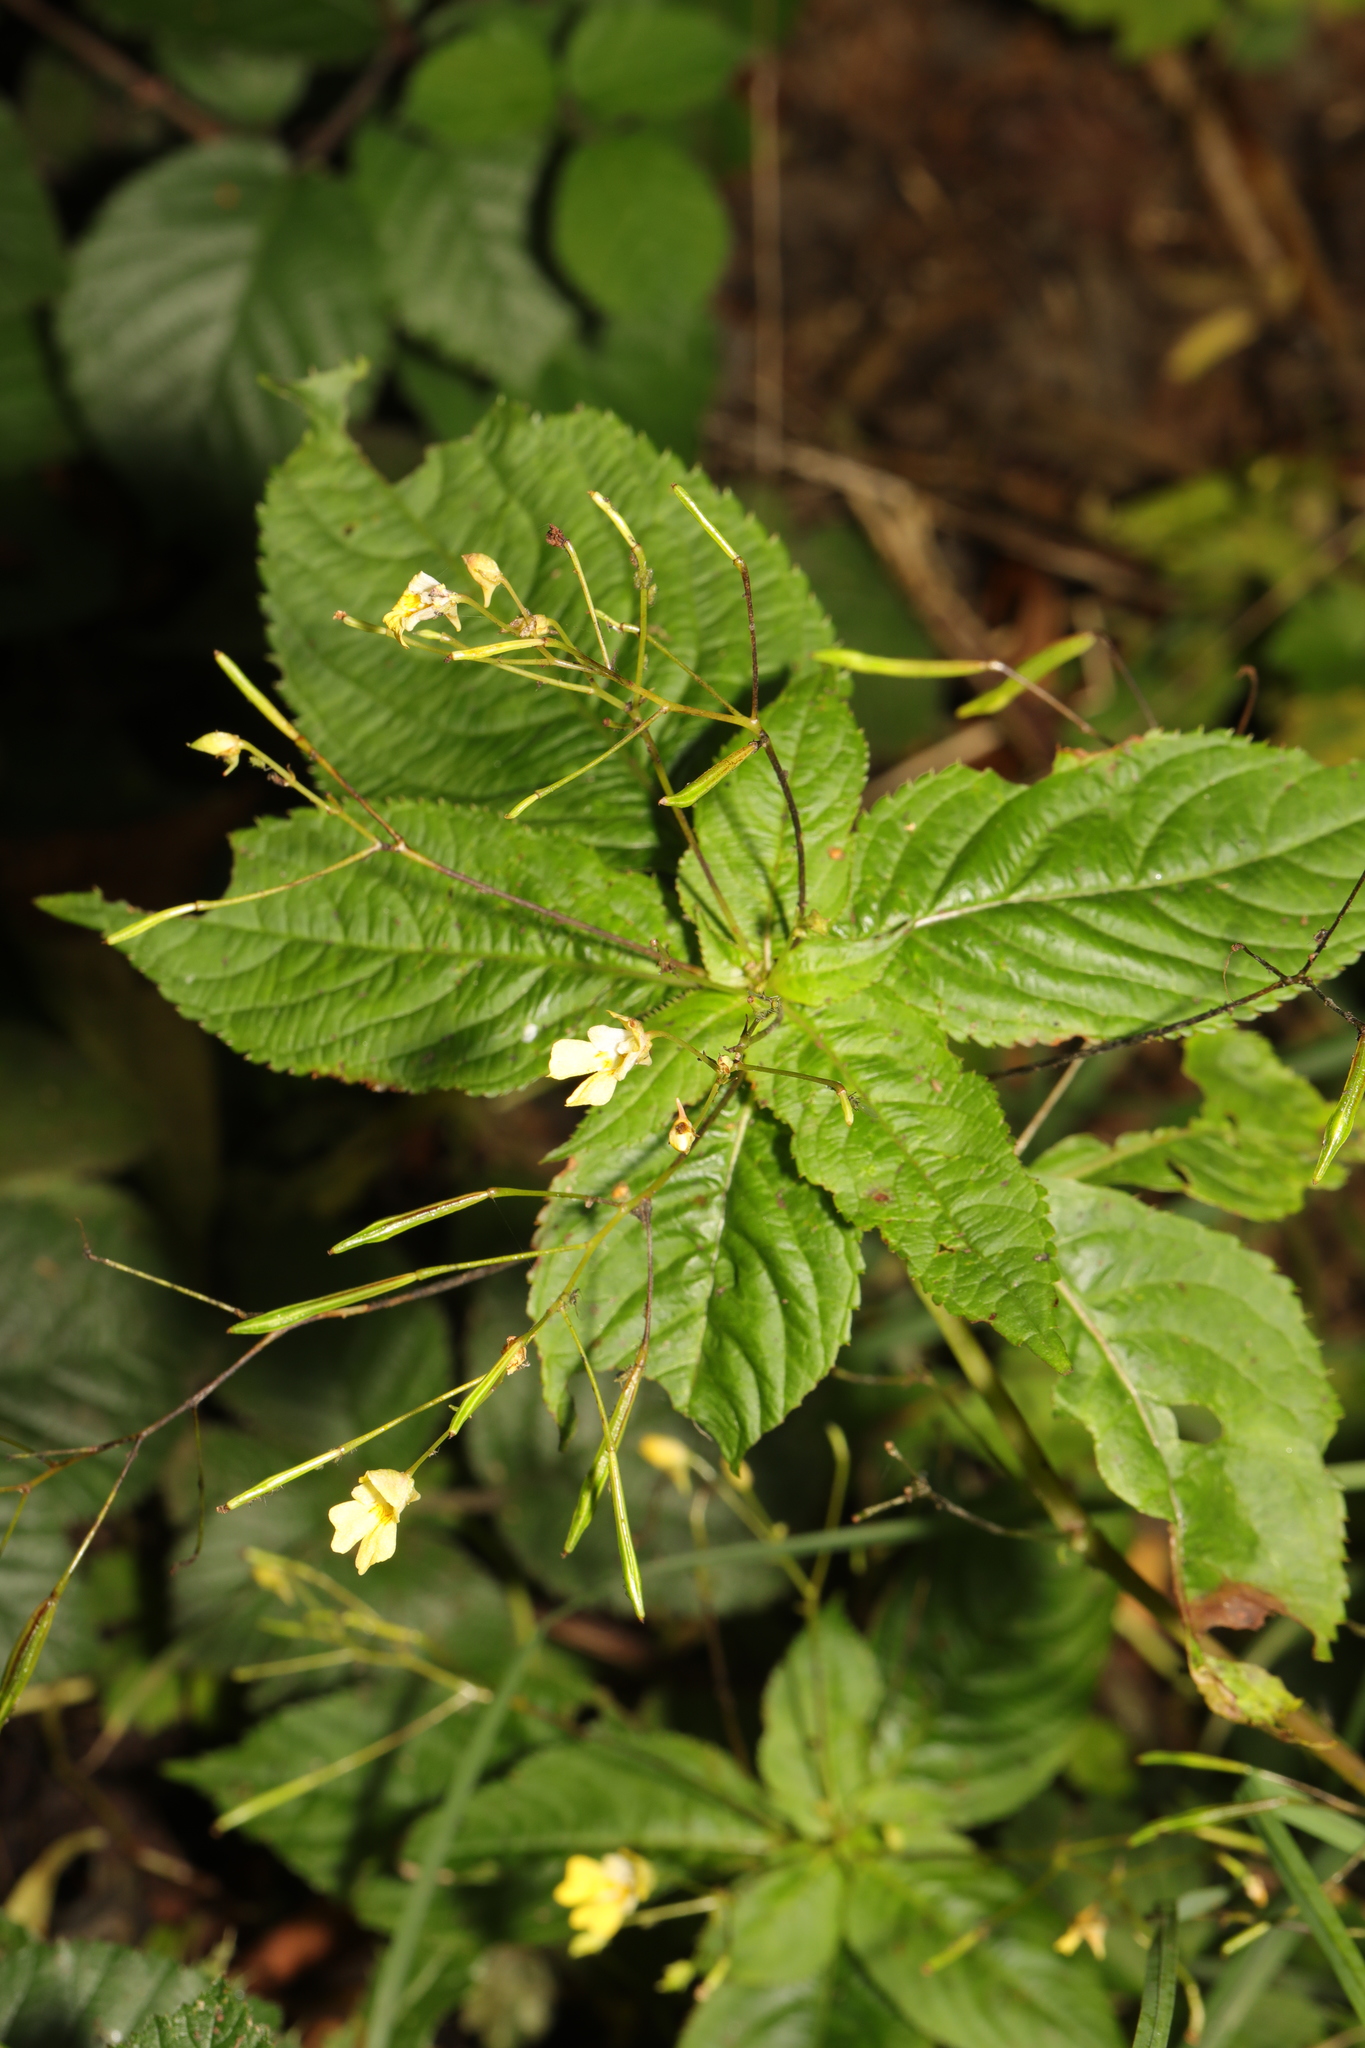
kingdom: Plantae
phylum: Tracheophyta
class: Magnoliopsida
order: Ericales
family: Balsaminaceae
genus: Impatiens
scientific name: Impatiens parviflora
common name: Small balsam
